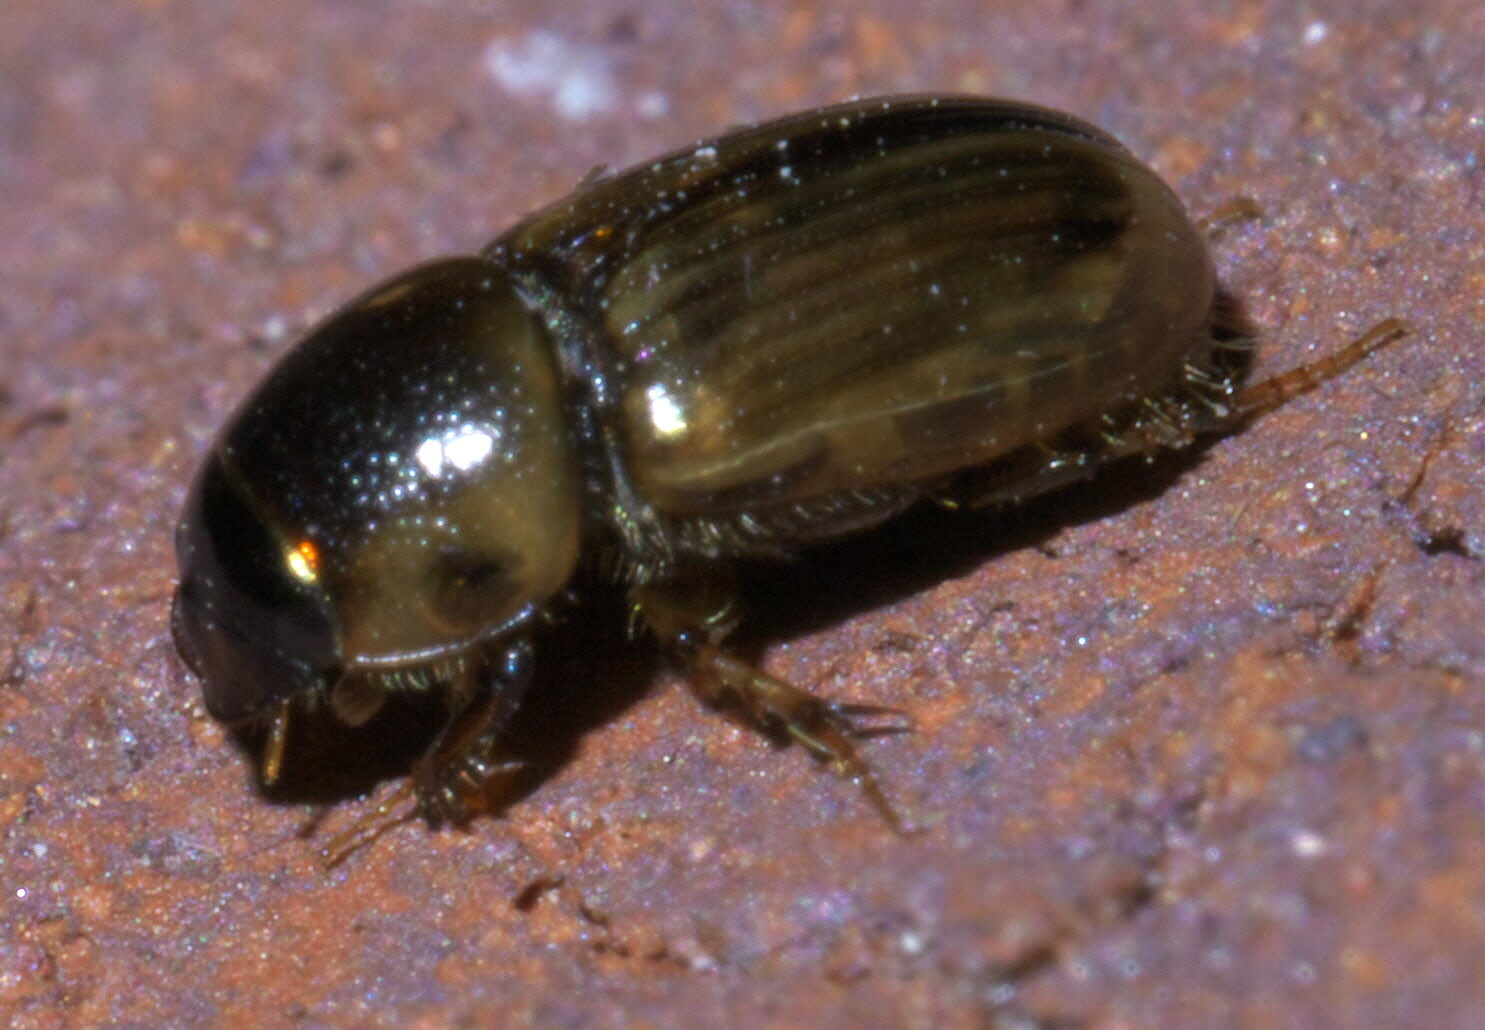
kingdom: Animalia
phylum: Arthropoda
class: Insecta
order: Coleoptera
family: Scarabaeidae
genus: Labarrus
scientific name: Labarrus lividus
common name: Scarab beetle
